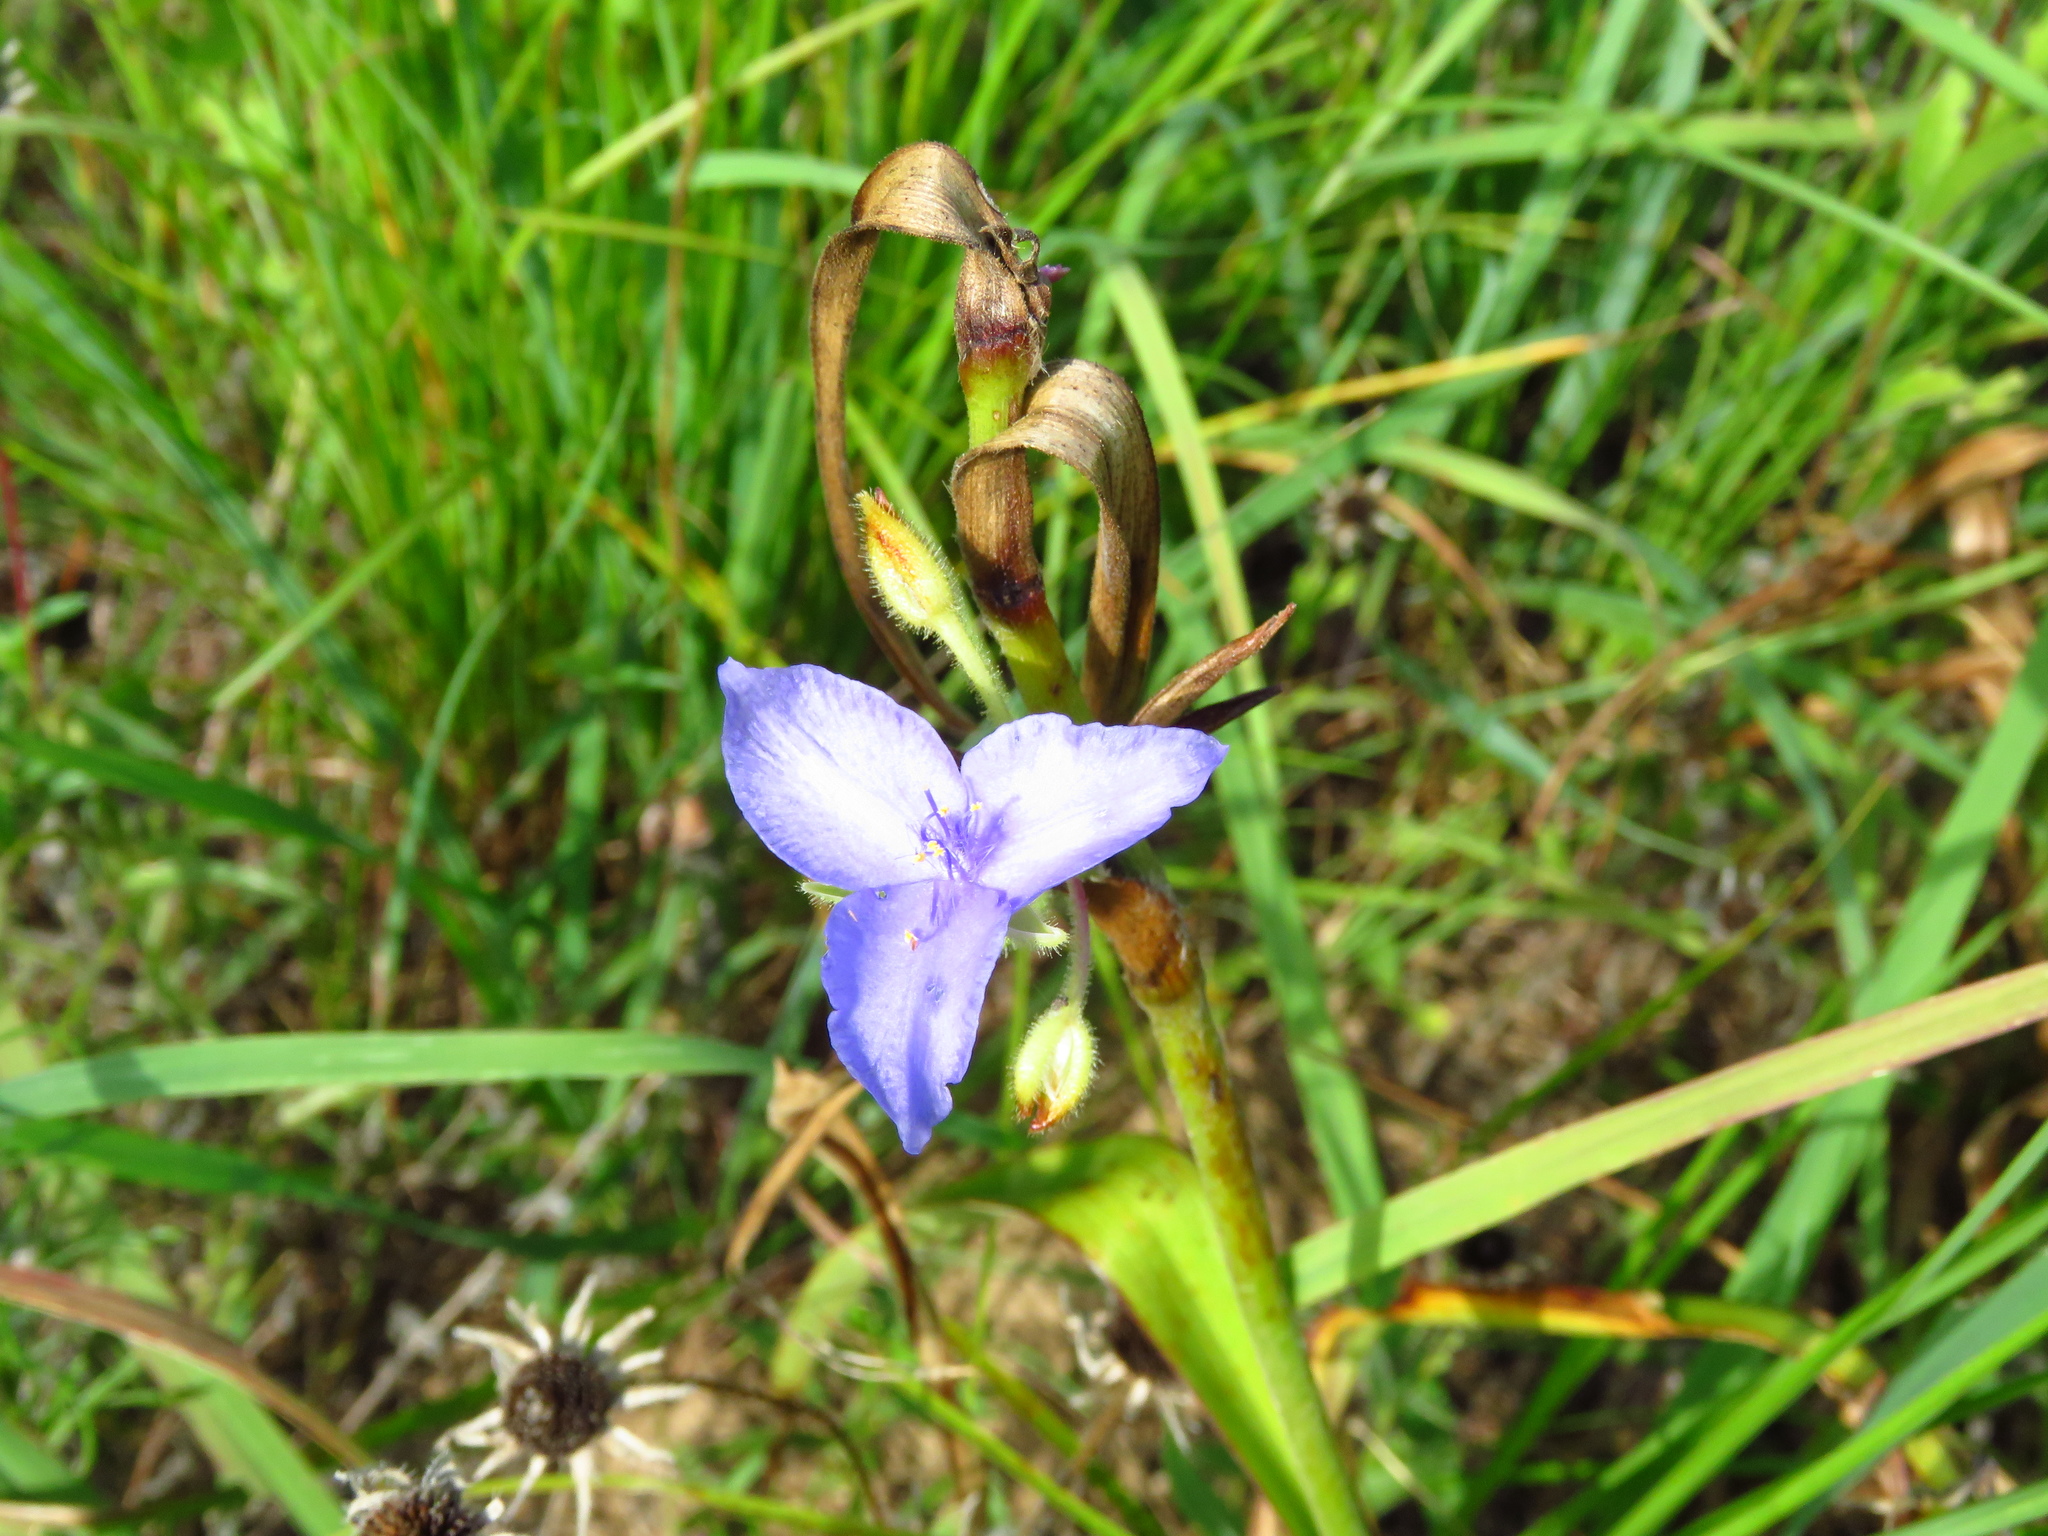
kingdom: Plantae
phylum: Tracheophyta
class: Liliopsida
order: Commelinales
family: Commelinaceae
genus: Tradescantia
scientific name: Tradescantia occidentalis
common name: Prairie spiderwort
